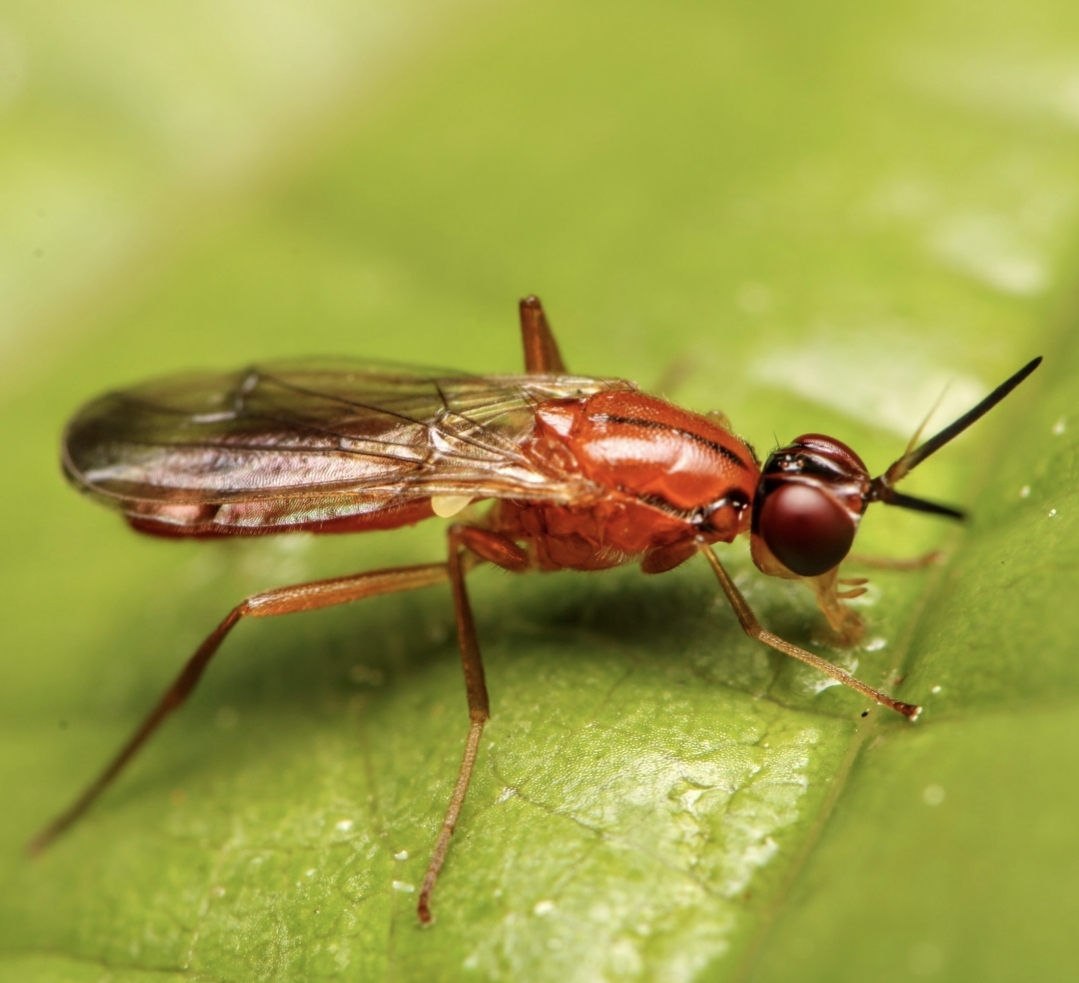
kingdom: Animalia
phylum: Arthropoda
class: Insecta
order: Diptera
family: Psilidae
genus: Loxocera
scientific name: Loxocera cylindrica
